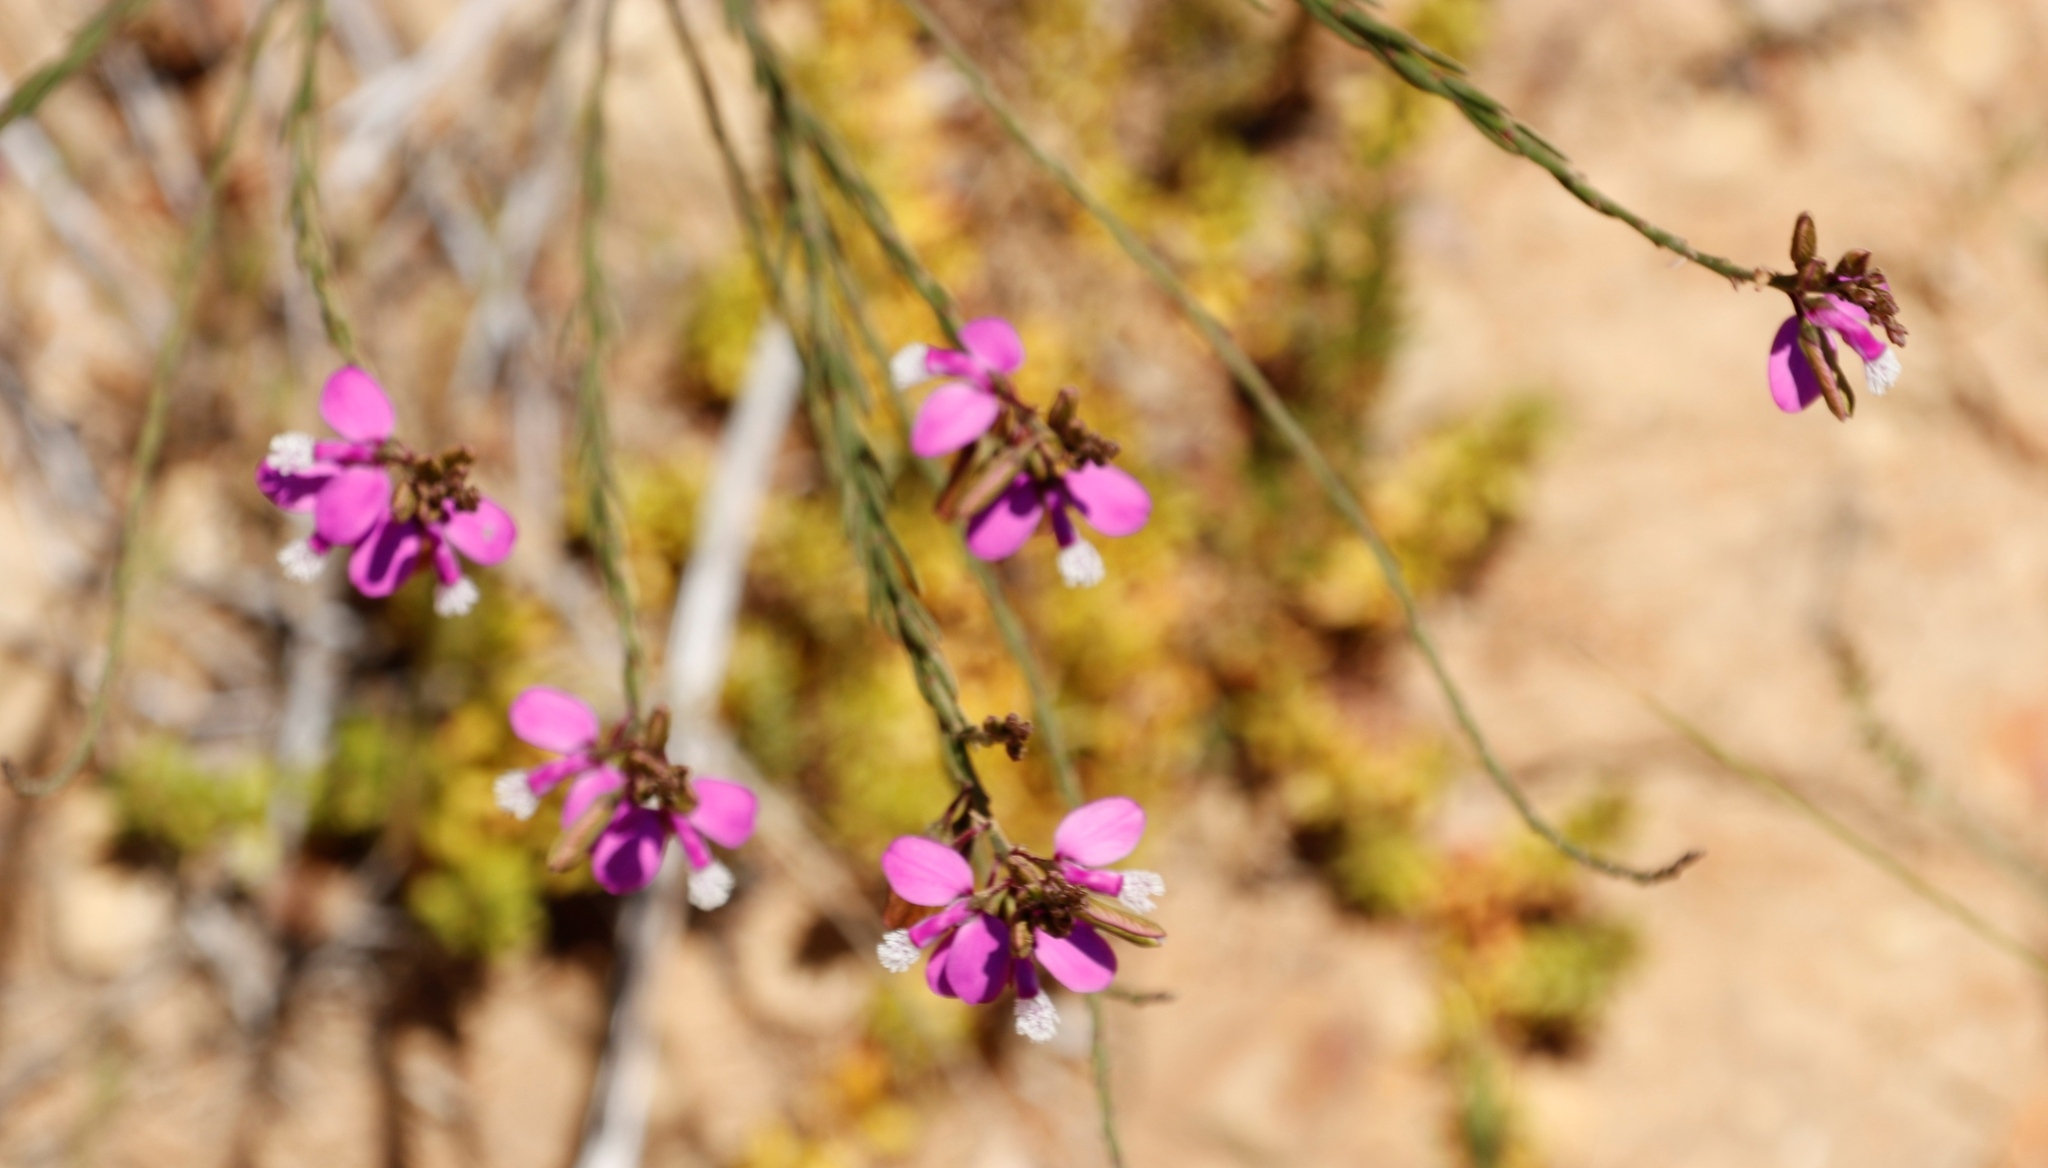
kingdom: Plantae
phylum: Tracheophyta
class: Magnoliopsida
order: Fabales
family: Polygalaceae
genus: Polygala
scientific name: Polygala garcini
